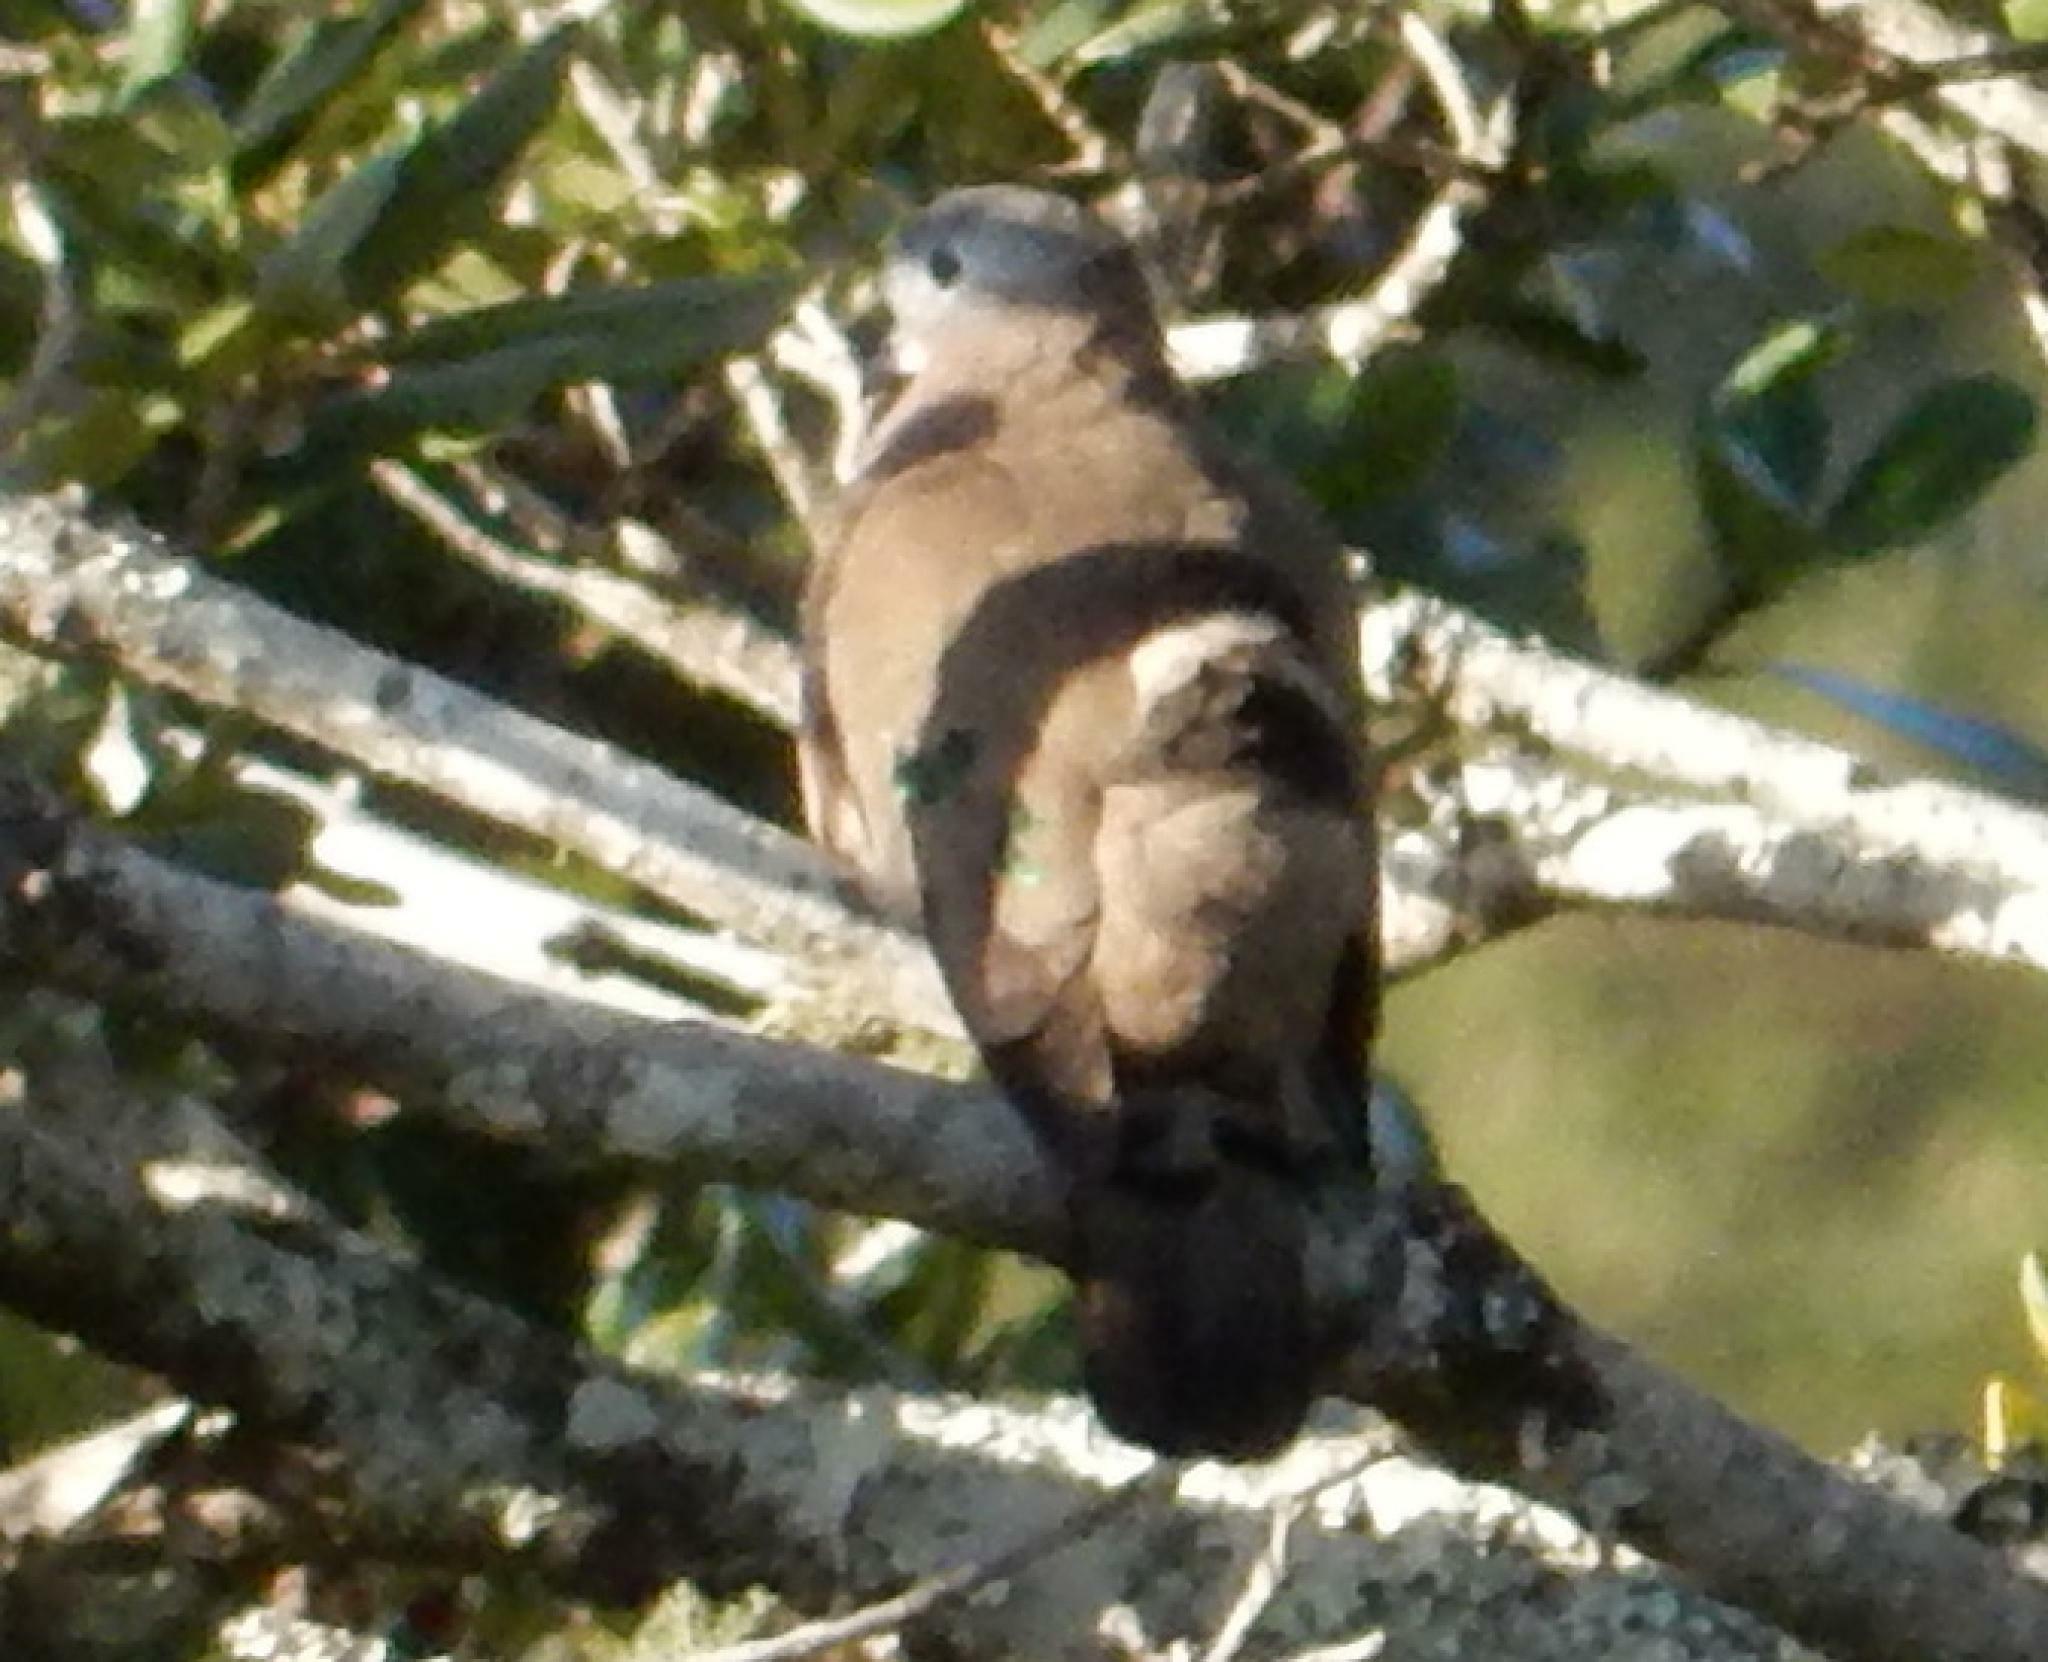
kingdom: Animalia
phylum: Chordata
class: Aves
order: Columbiformes
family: Columbidae
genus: Turtur
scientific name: Turtur chalcospilos
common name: Emerald-spotted wood dove
